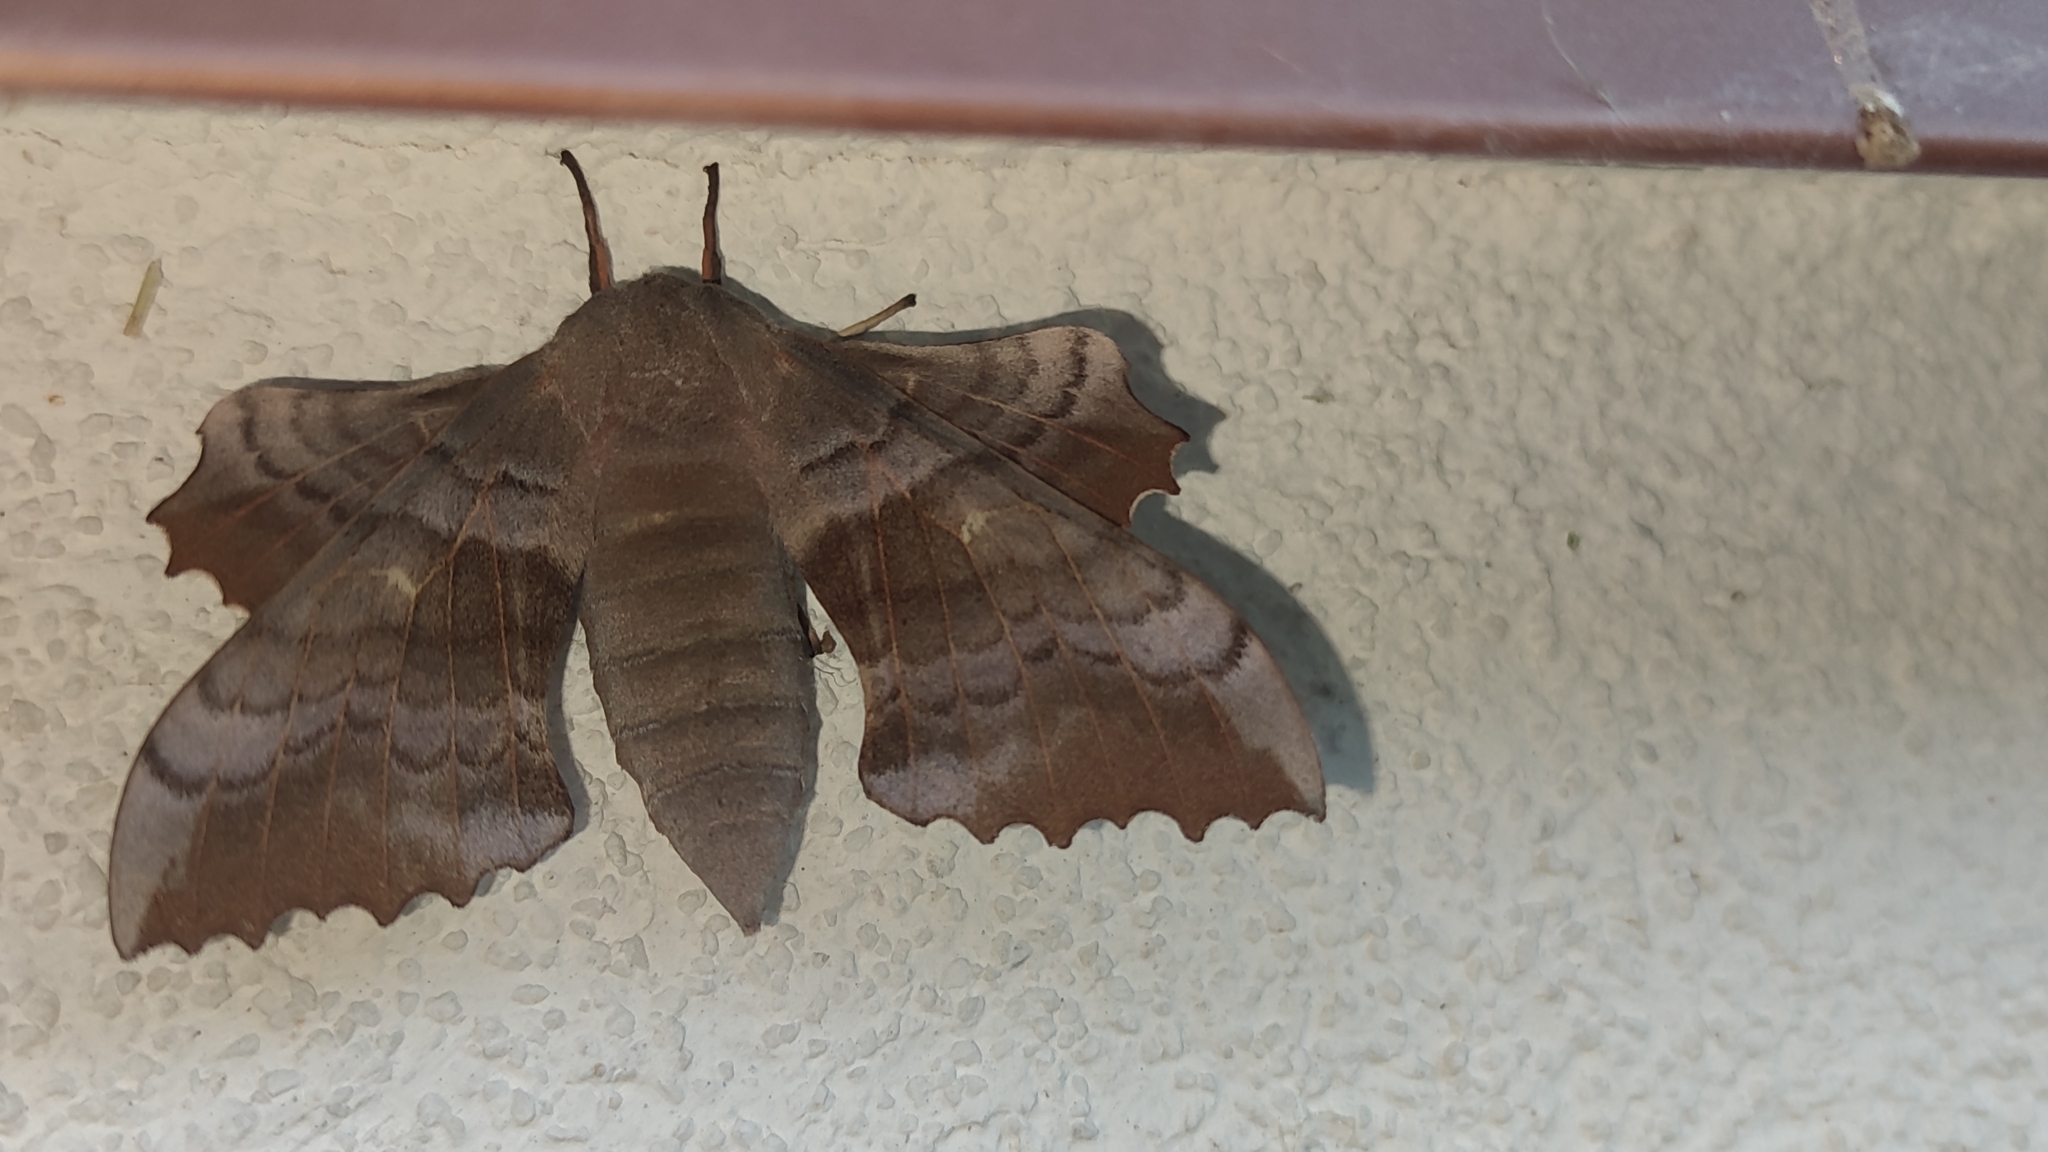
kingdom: Animalia
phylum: Arthropoda
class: Insecta
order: Lepidoptera
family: Sphingidae
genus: Laothoe
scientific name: Laothoe populi
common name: Poplar hawk-moth
